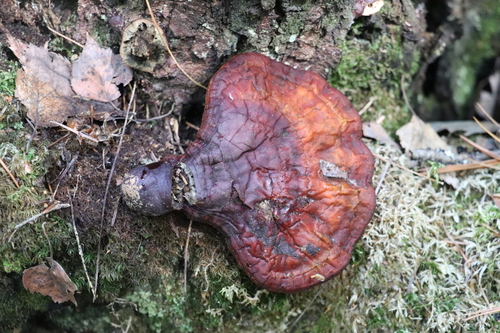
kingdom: Fungi
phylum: Basidiomycota
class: Agaricomycetes
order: Polyporales
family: Polyporaceae
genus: Ganoderma
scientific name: Ganoderma lucidum
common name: Lacquered bracket
